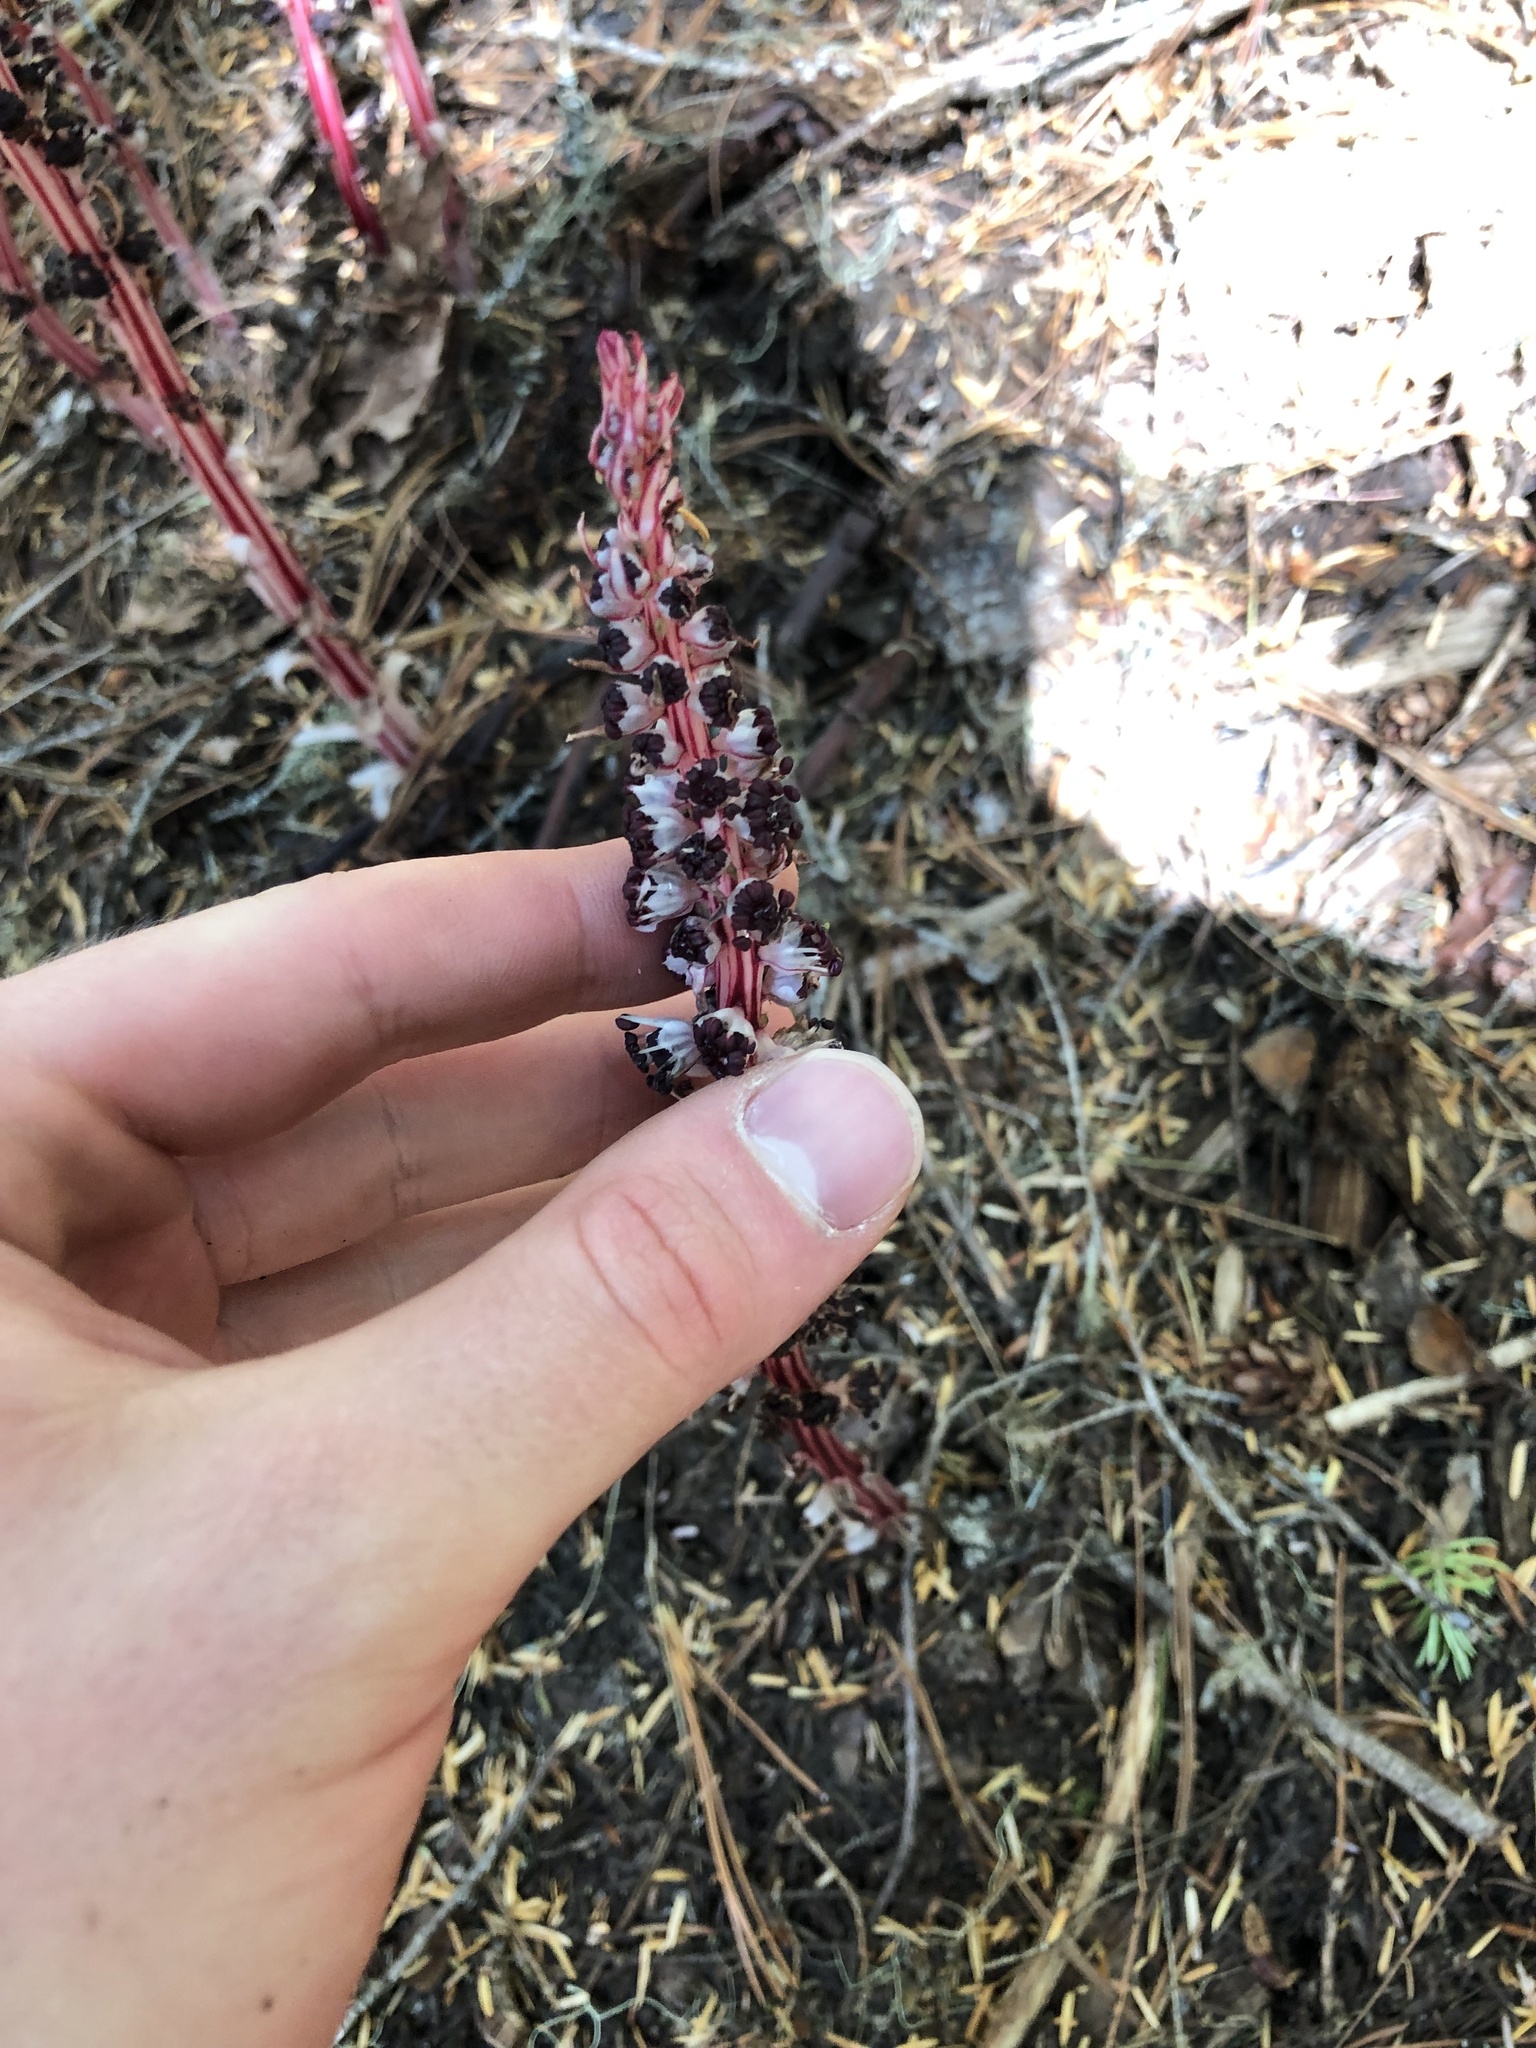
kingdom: Plantae
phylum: Tracheophyta
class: Magnoliopsida
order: Ericales
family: Ericaceae
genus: Allotropa
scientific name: Allotropa virgata
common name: Candy-striped allotropa
